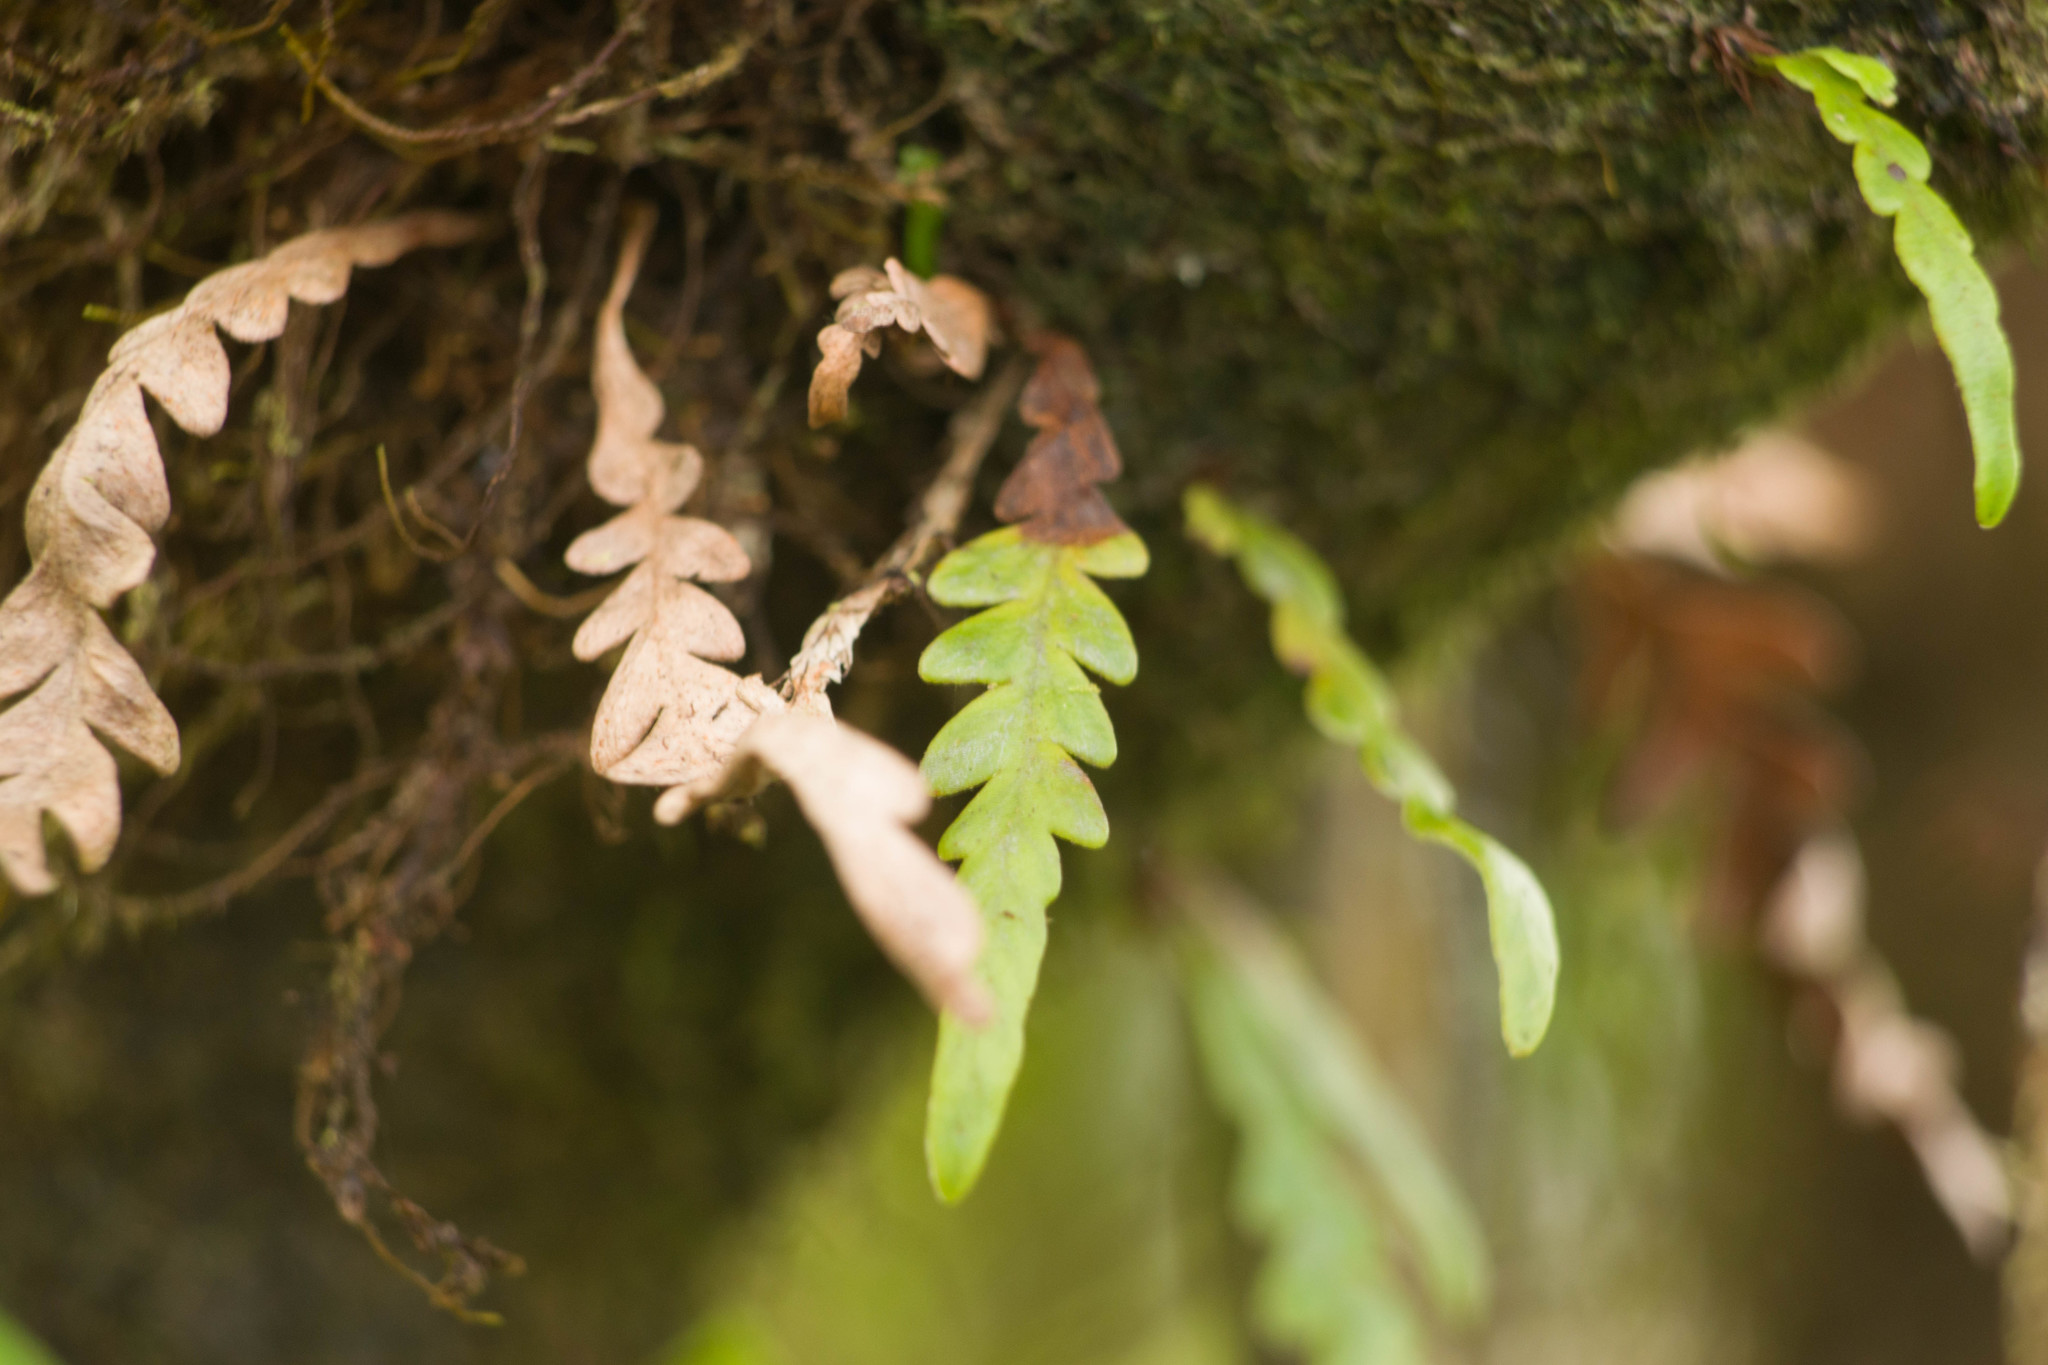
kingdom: Plantae
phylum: Tracheophyta
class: Polypodiopsida
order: Polypodiales
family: Polypodiaceae
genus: Adenophorus
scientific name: Adenophorus pinnatifidus
